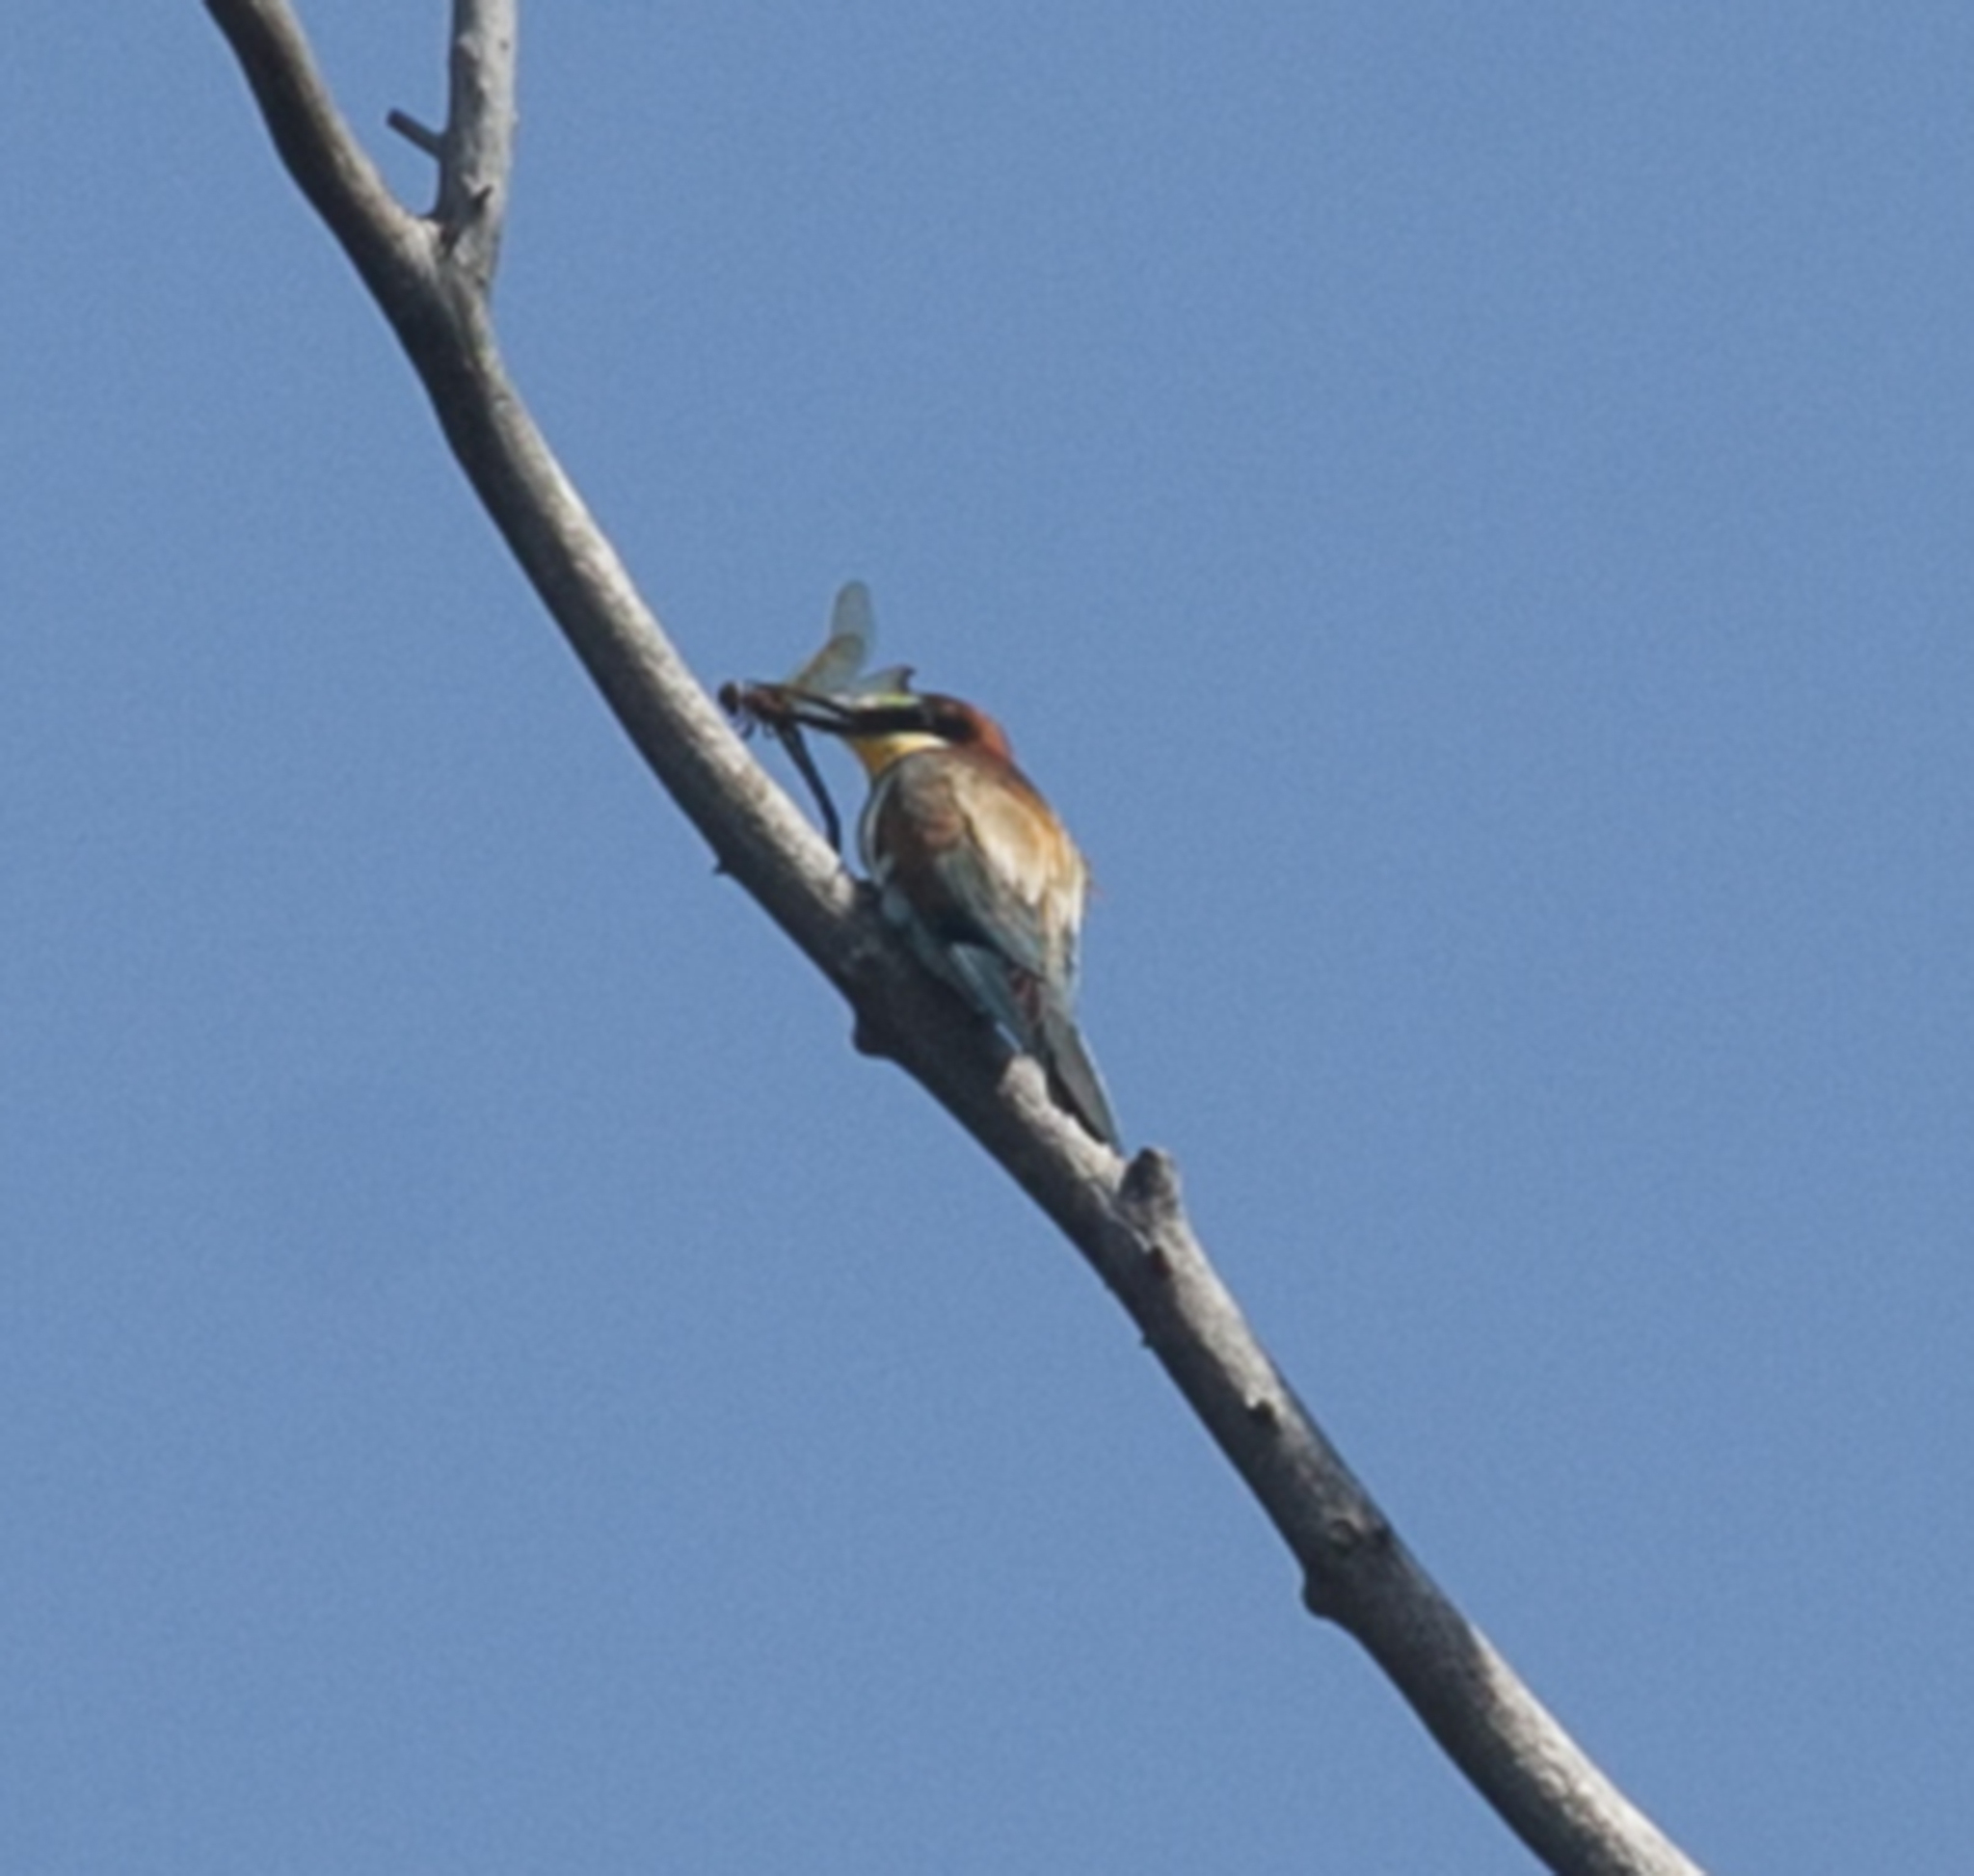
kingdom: Animalia
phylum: Chordata
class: Aves
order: Coraciiformes
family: Meropidae
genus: Merops
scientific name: Merops apiaster
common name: European bee-eater
